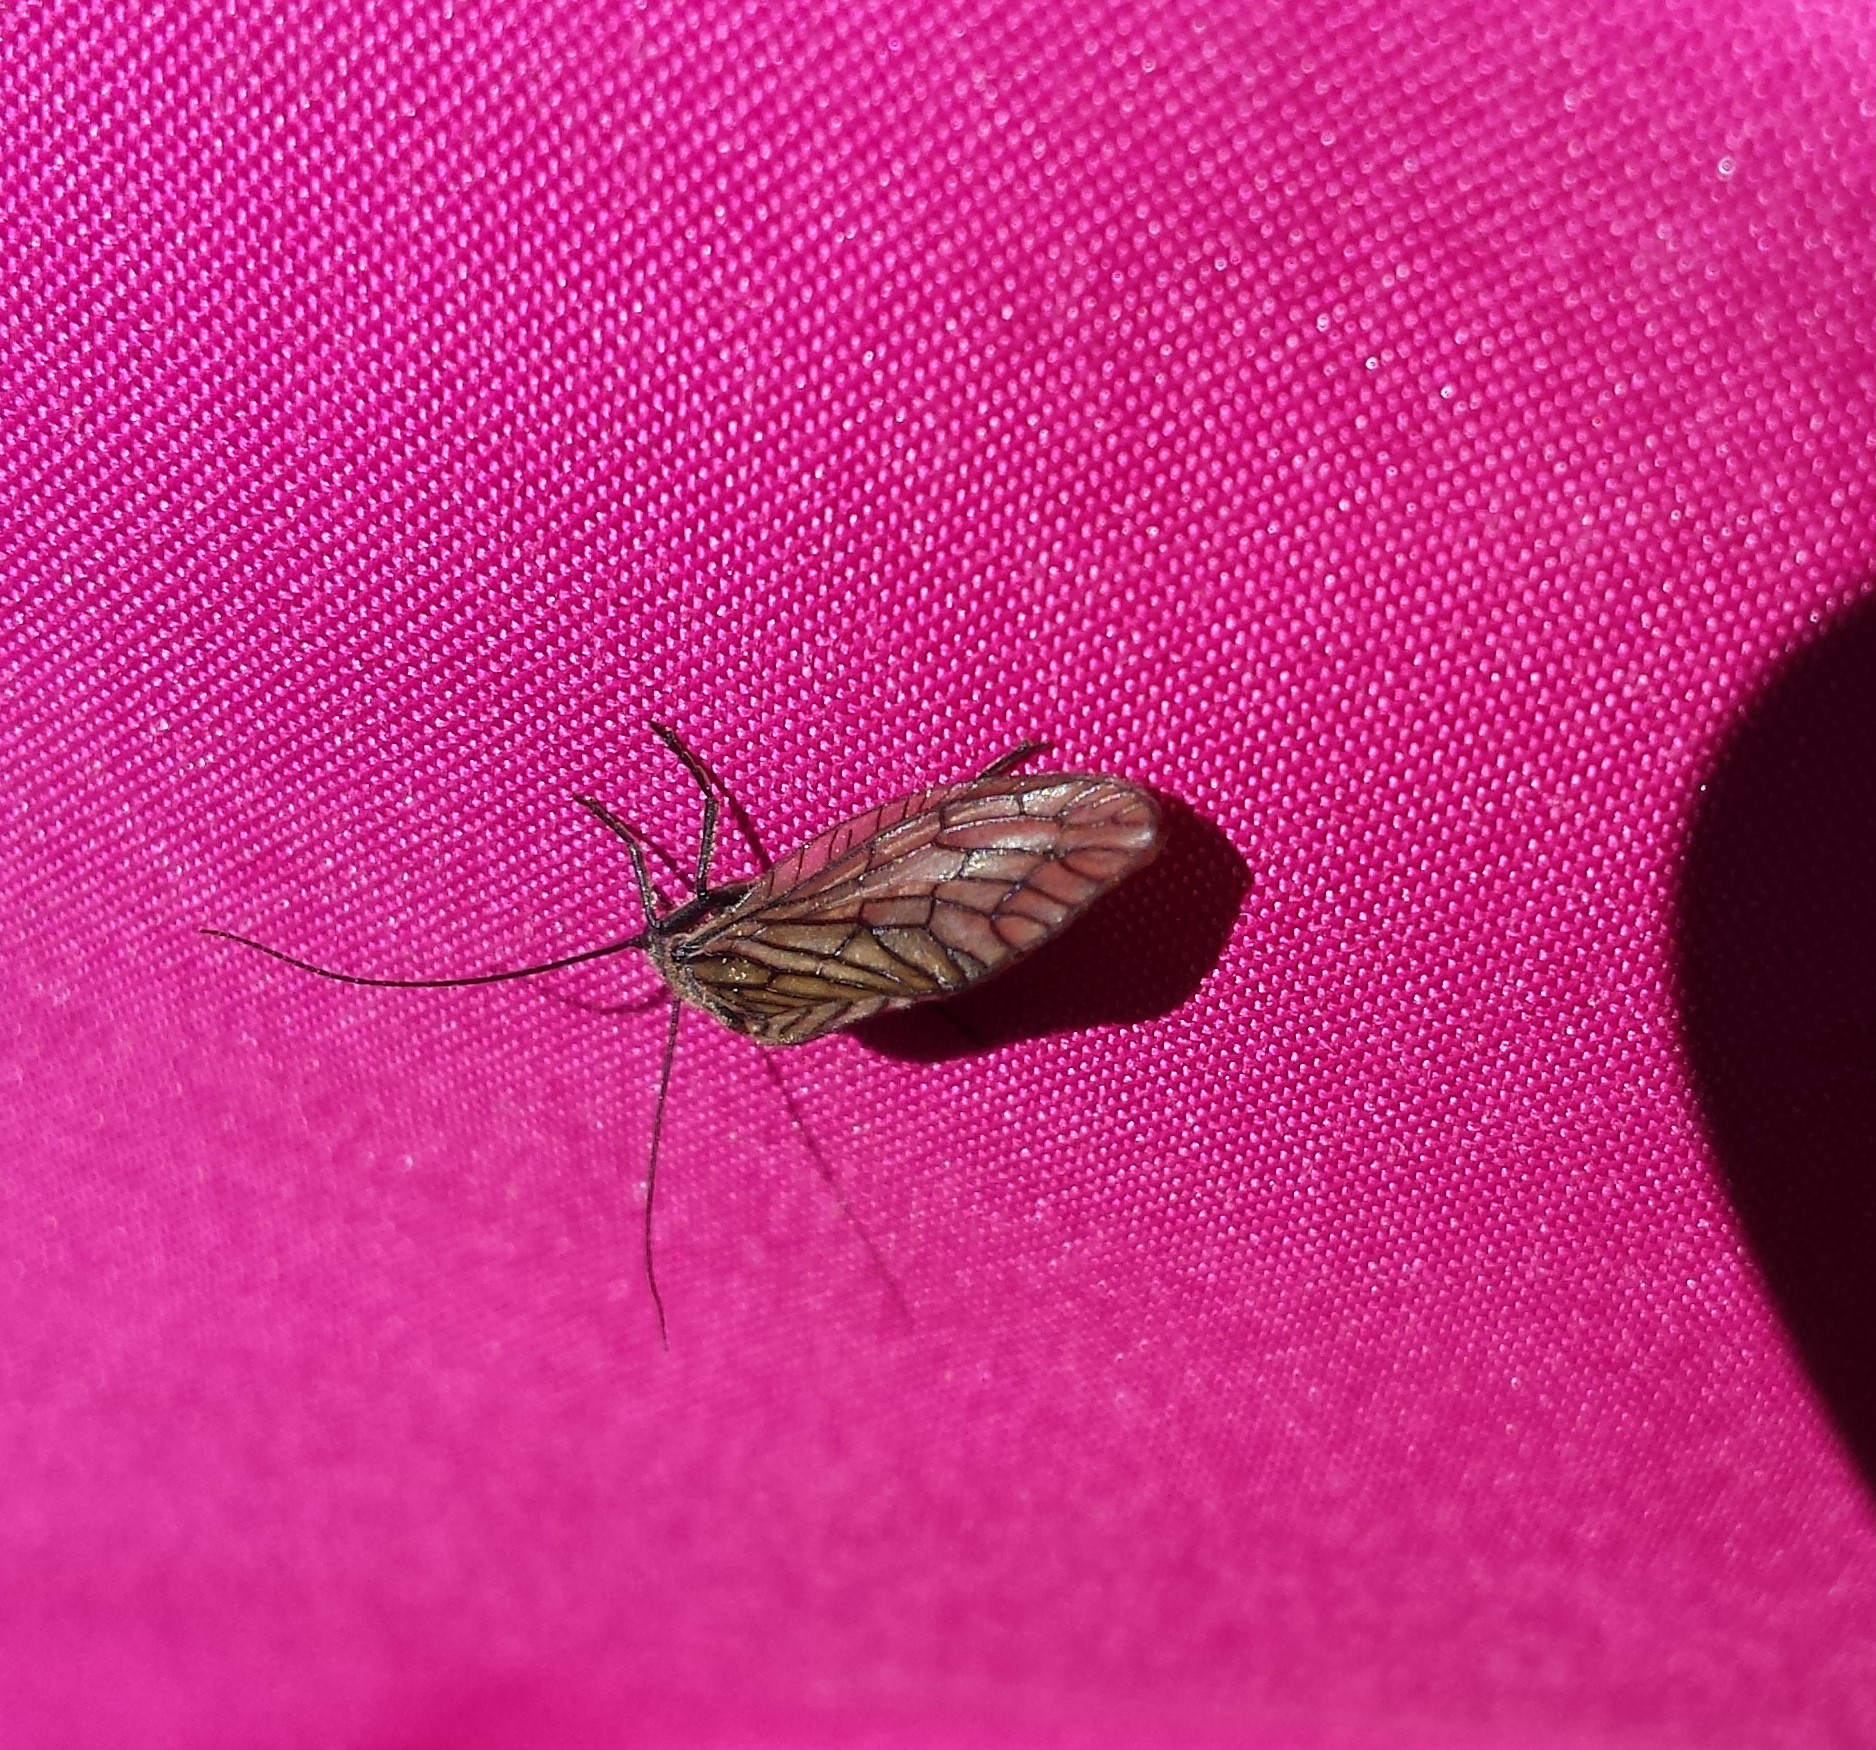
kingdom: Animalia
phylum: Arthropoda
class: Insecta
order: Megaloptera
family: Sialidae
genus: Sialis
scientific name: Sialis
